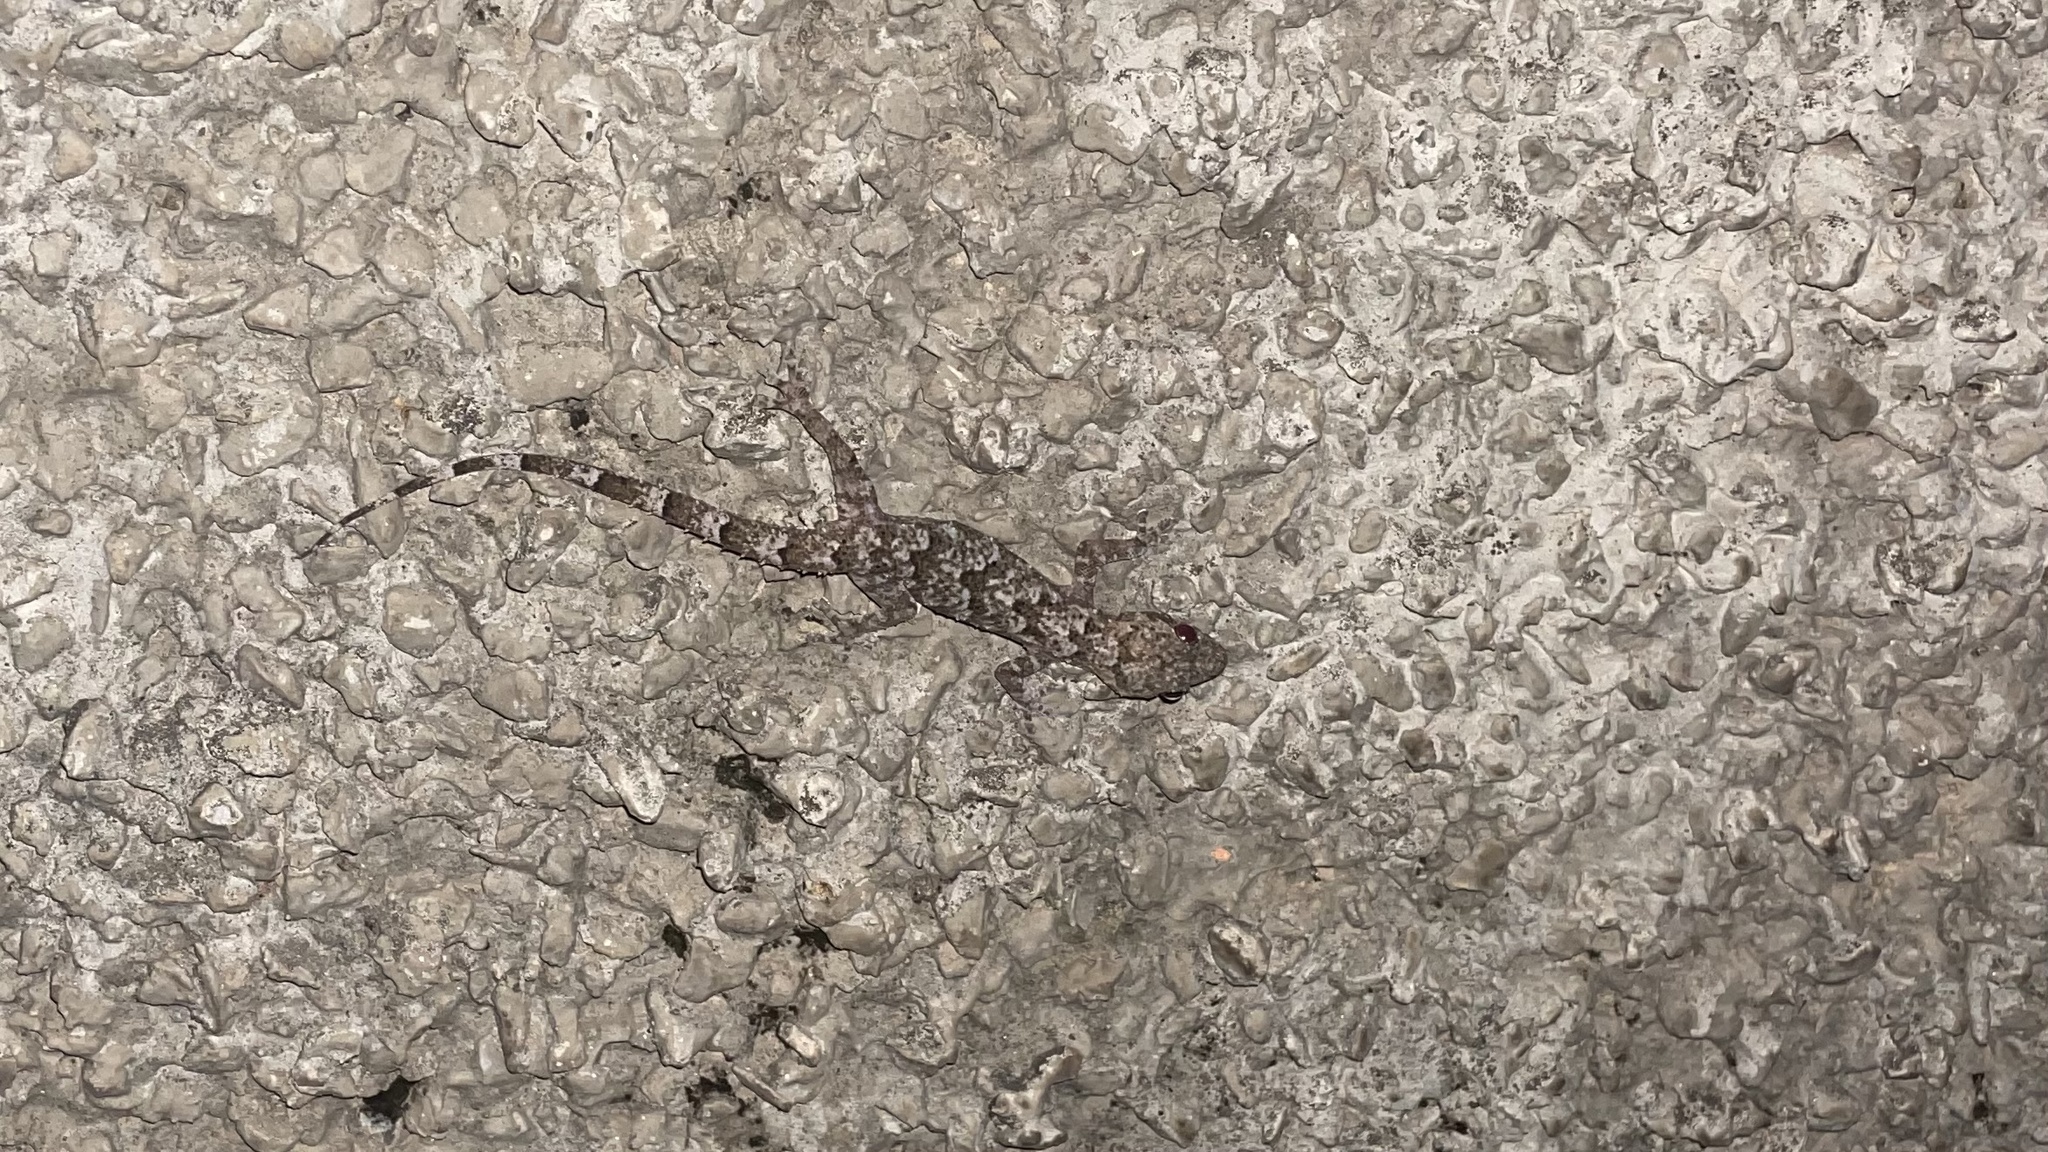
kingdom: Animalia
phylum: Chordata
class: Squamata
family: Gekkonidae
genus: Hemidactylus
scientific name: Hemidactylus mabouia
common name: House gecko
